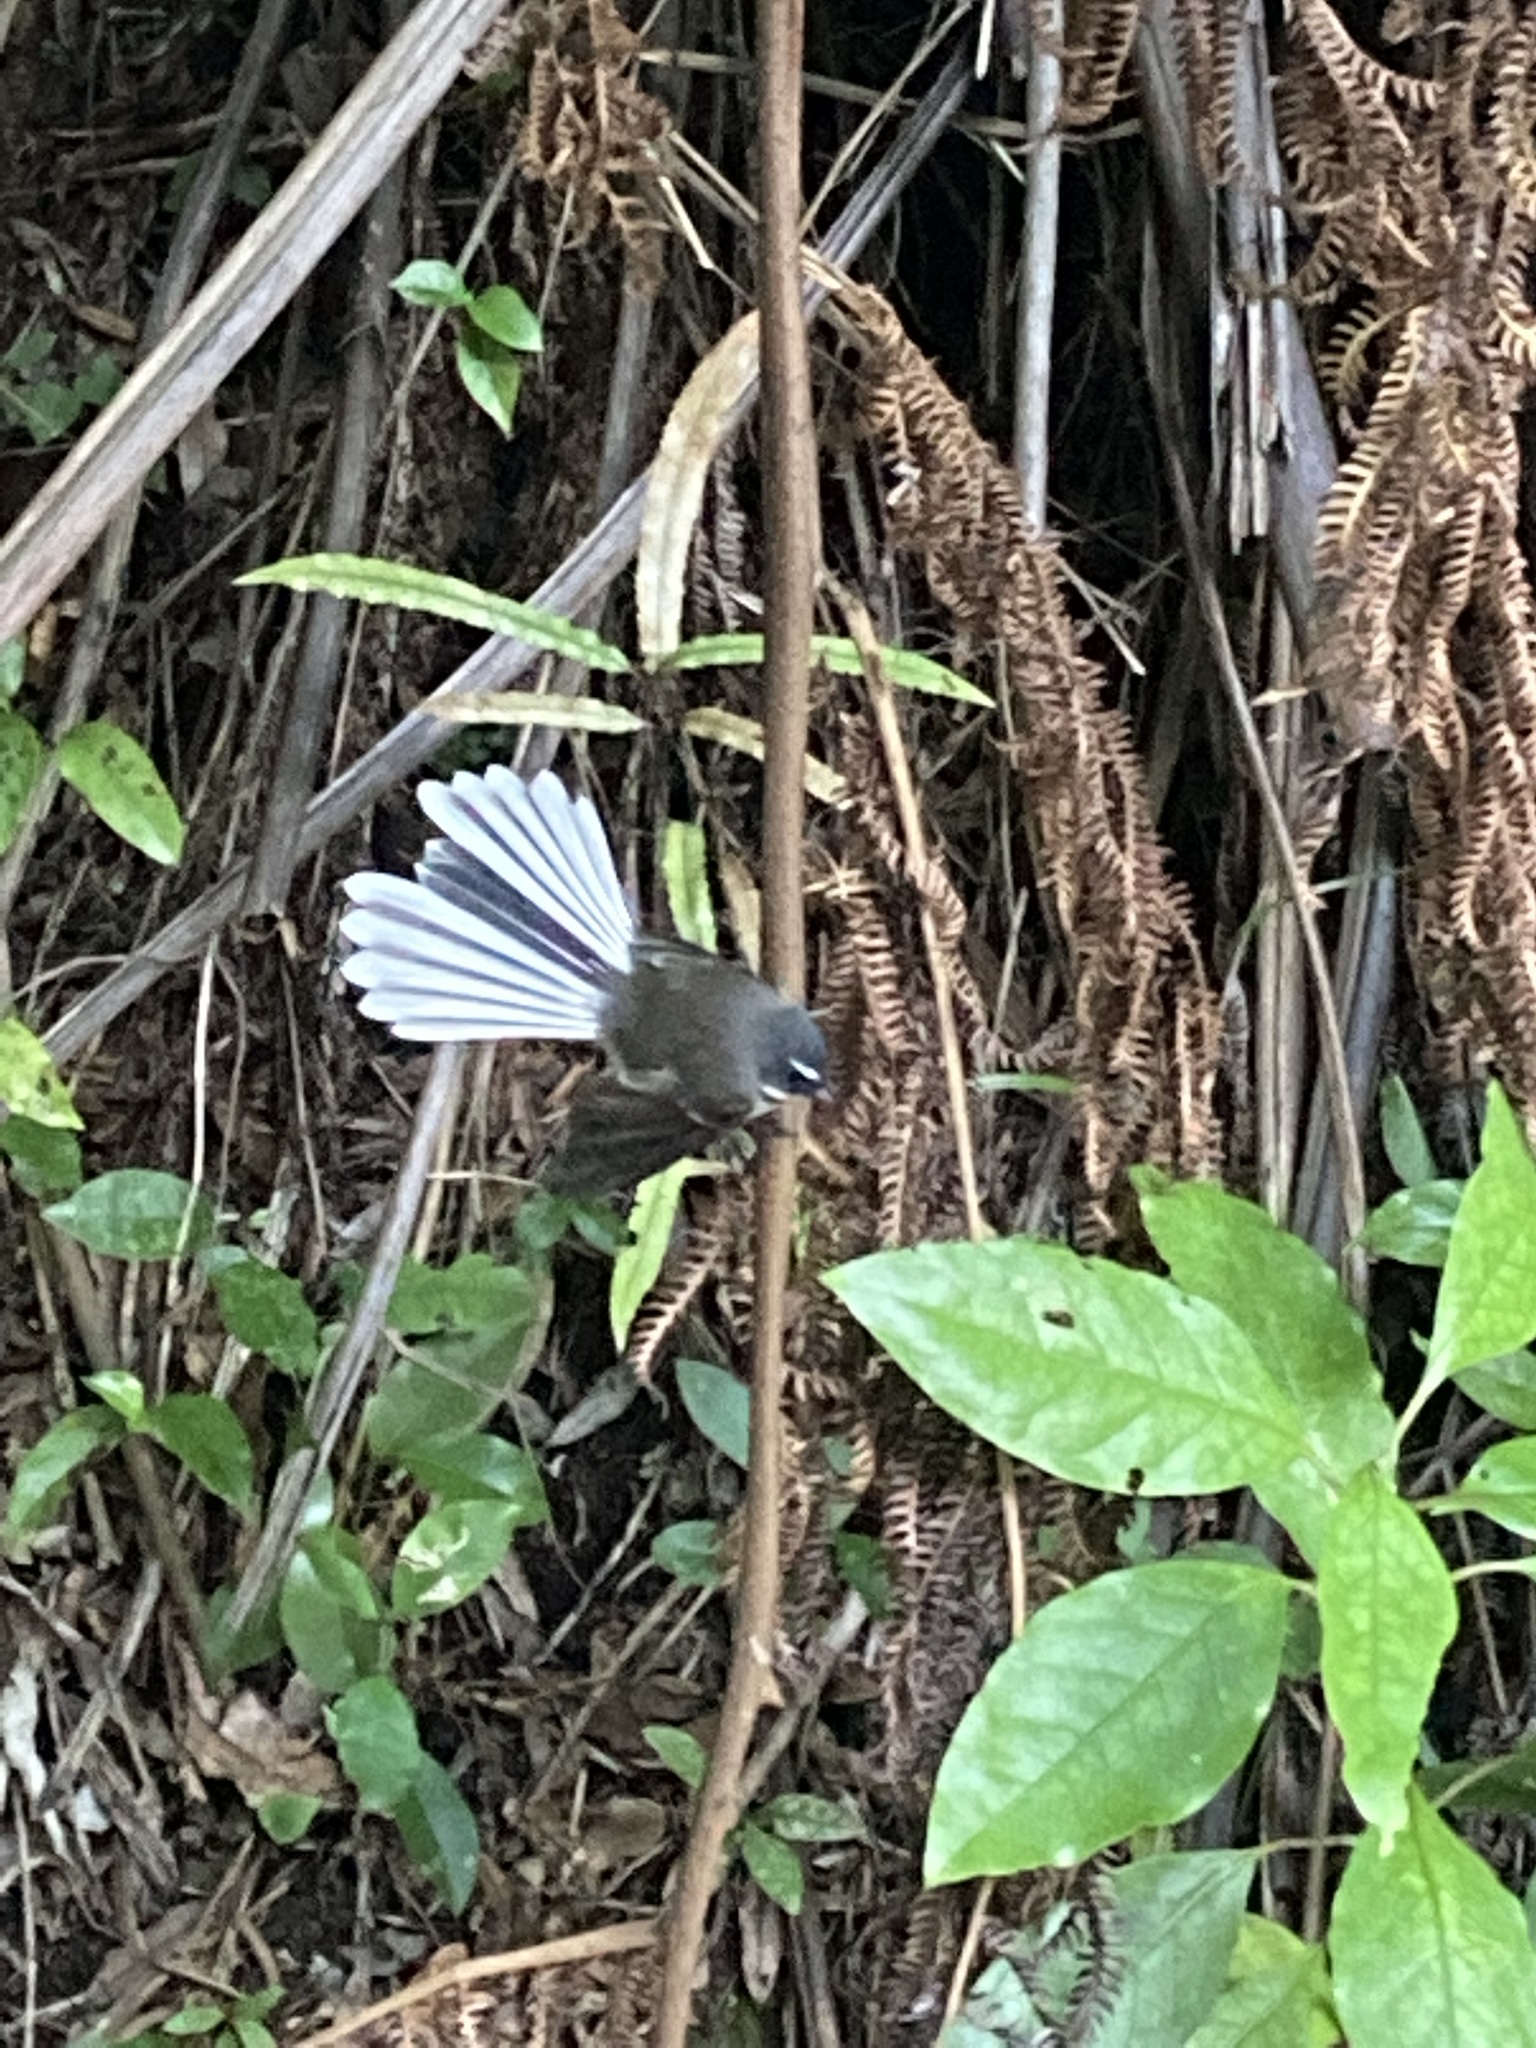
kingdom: Animalia
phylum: Chordata
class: Aves
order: Passeriformes
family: Rhipiduridae
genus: Rhipidura
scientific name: Rhipidura fuliginosa
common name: New zealand fantail
